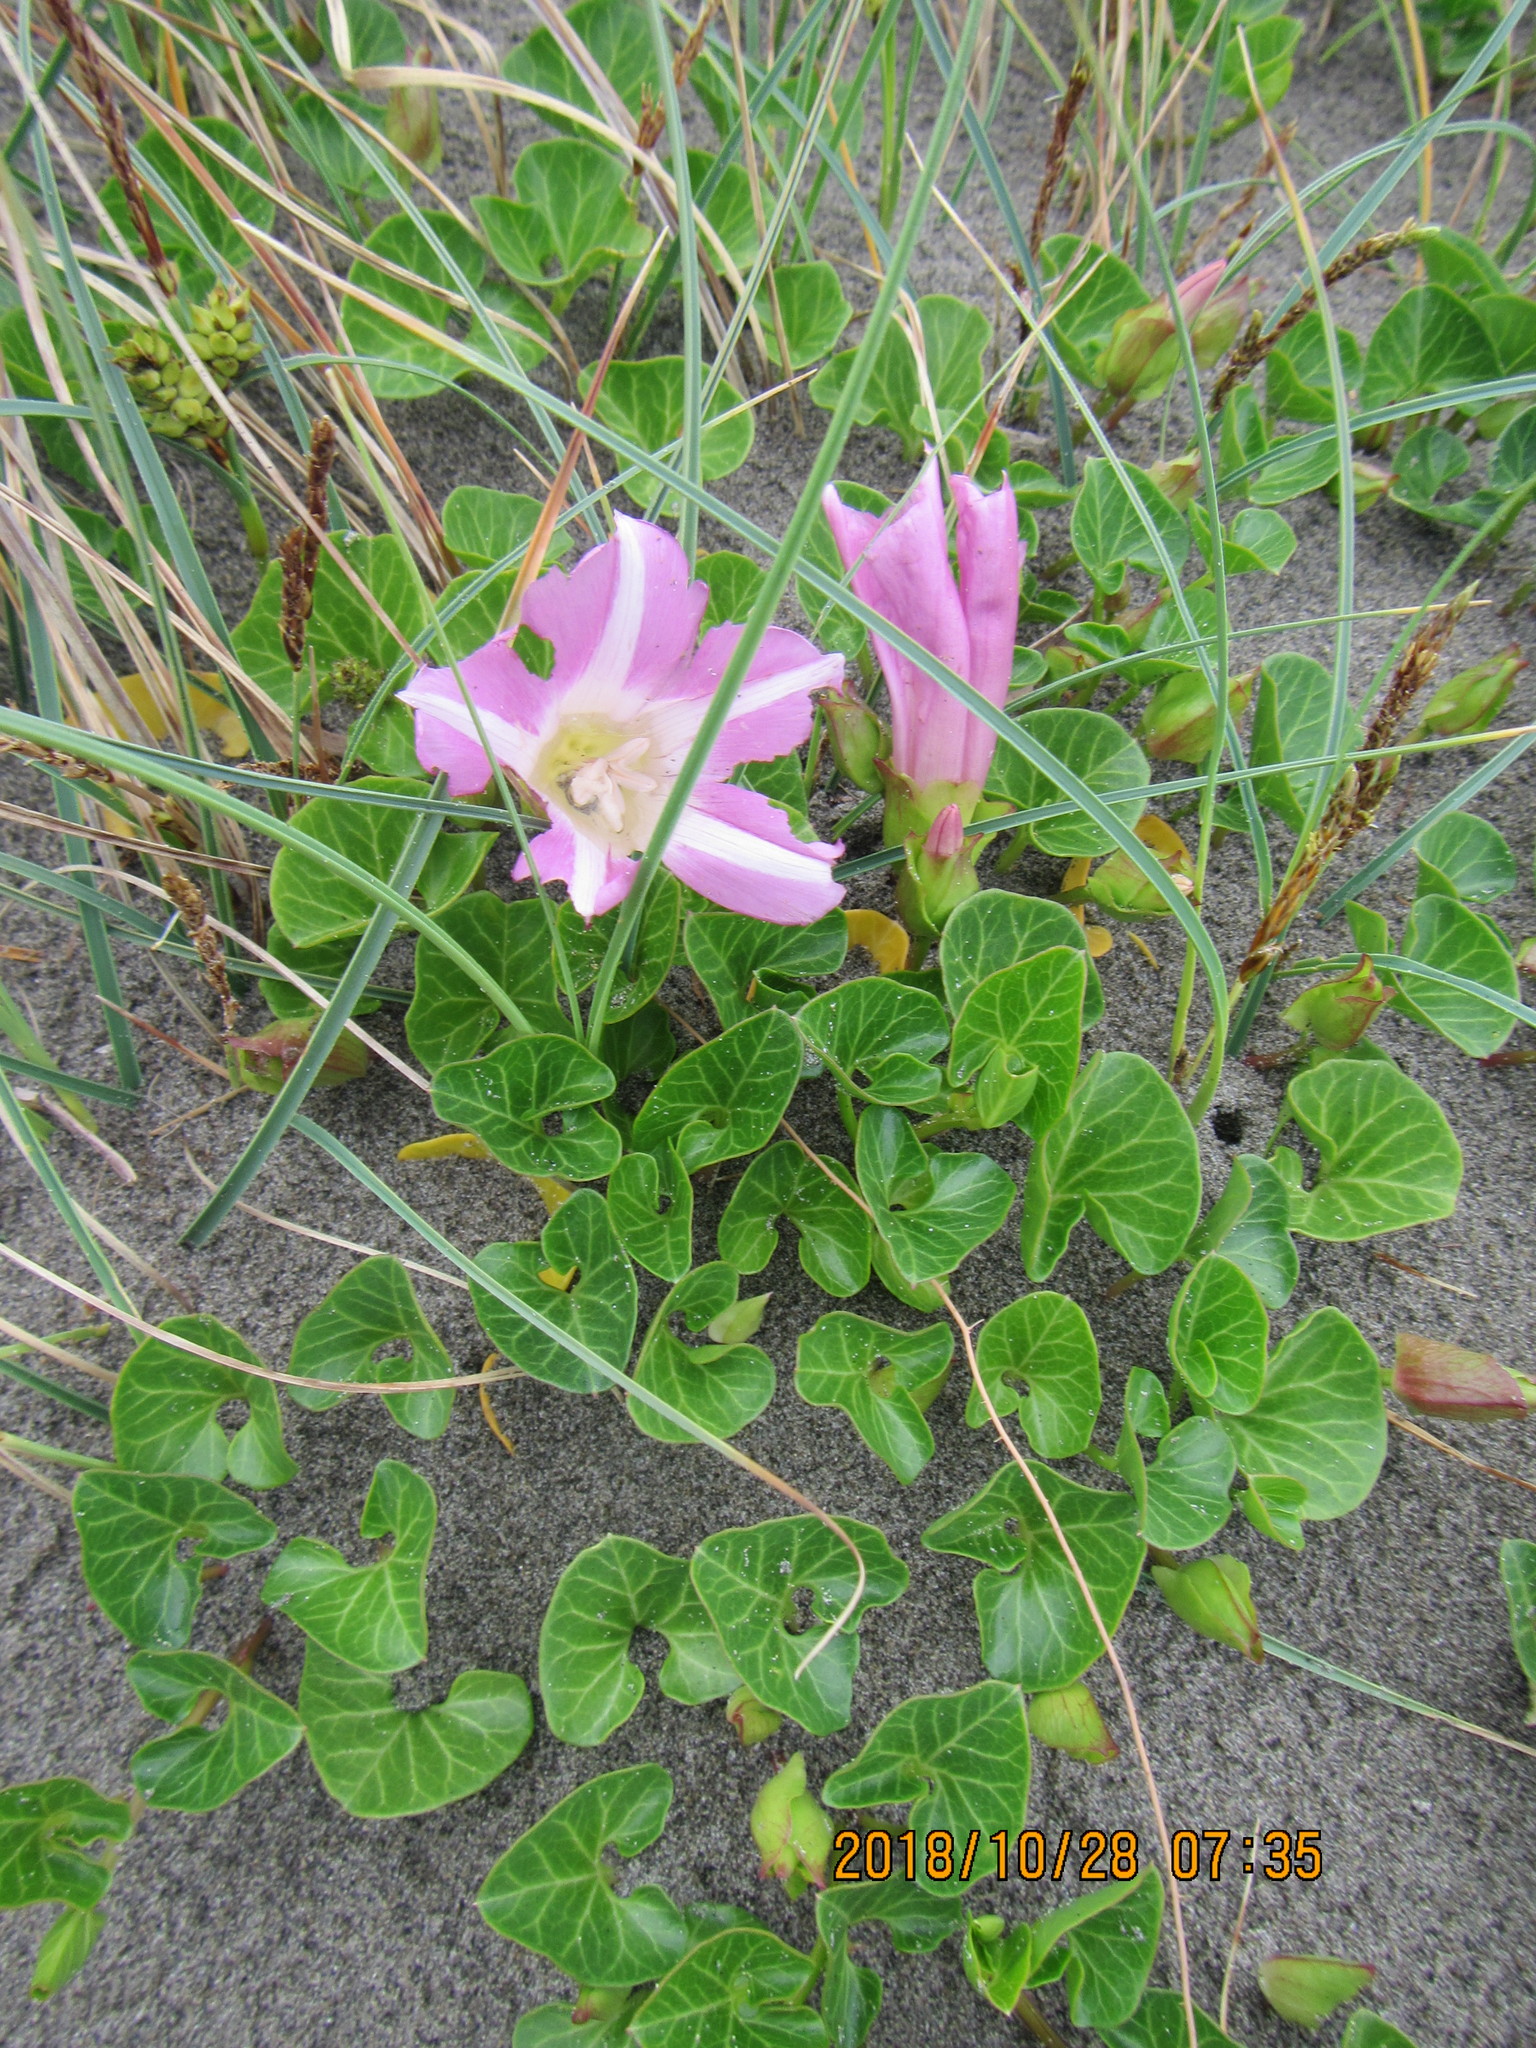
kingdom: Plantae
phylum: Tracheophyta
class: Magnoliopsida
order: Solanales
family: Convolvulaceae
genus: Calystegia
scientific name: Calystegia soldanella
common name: Sea bindweed
